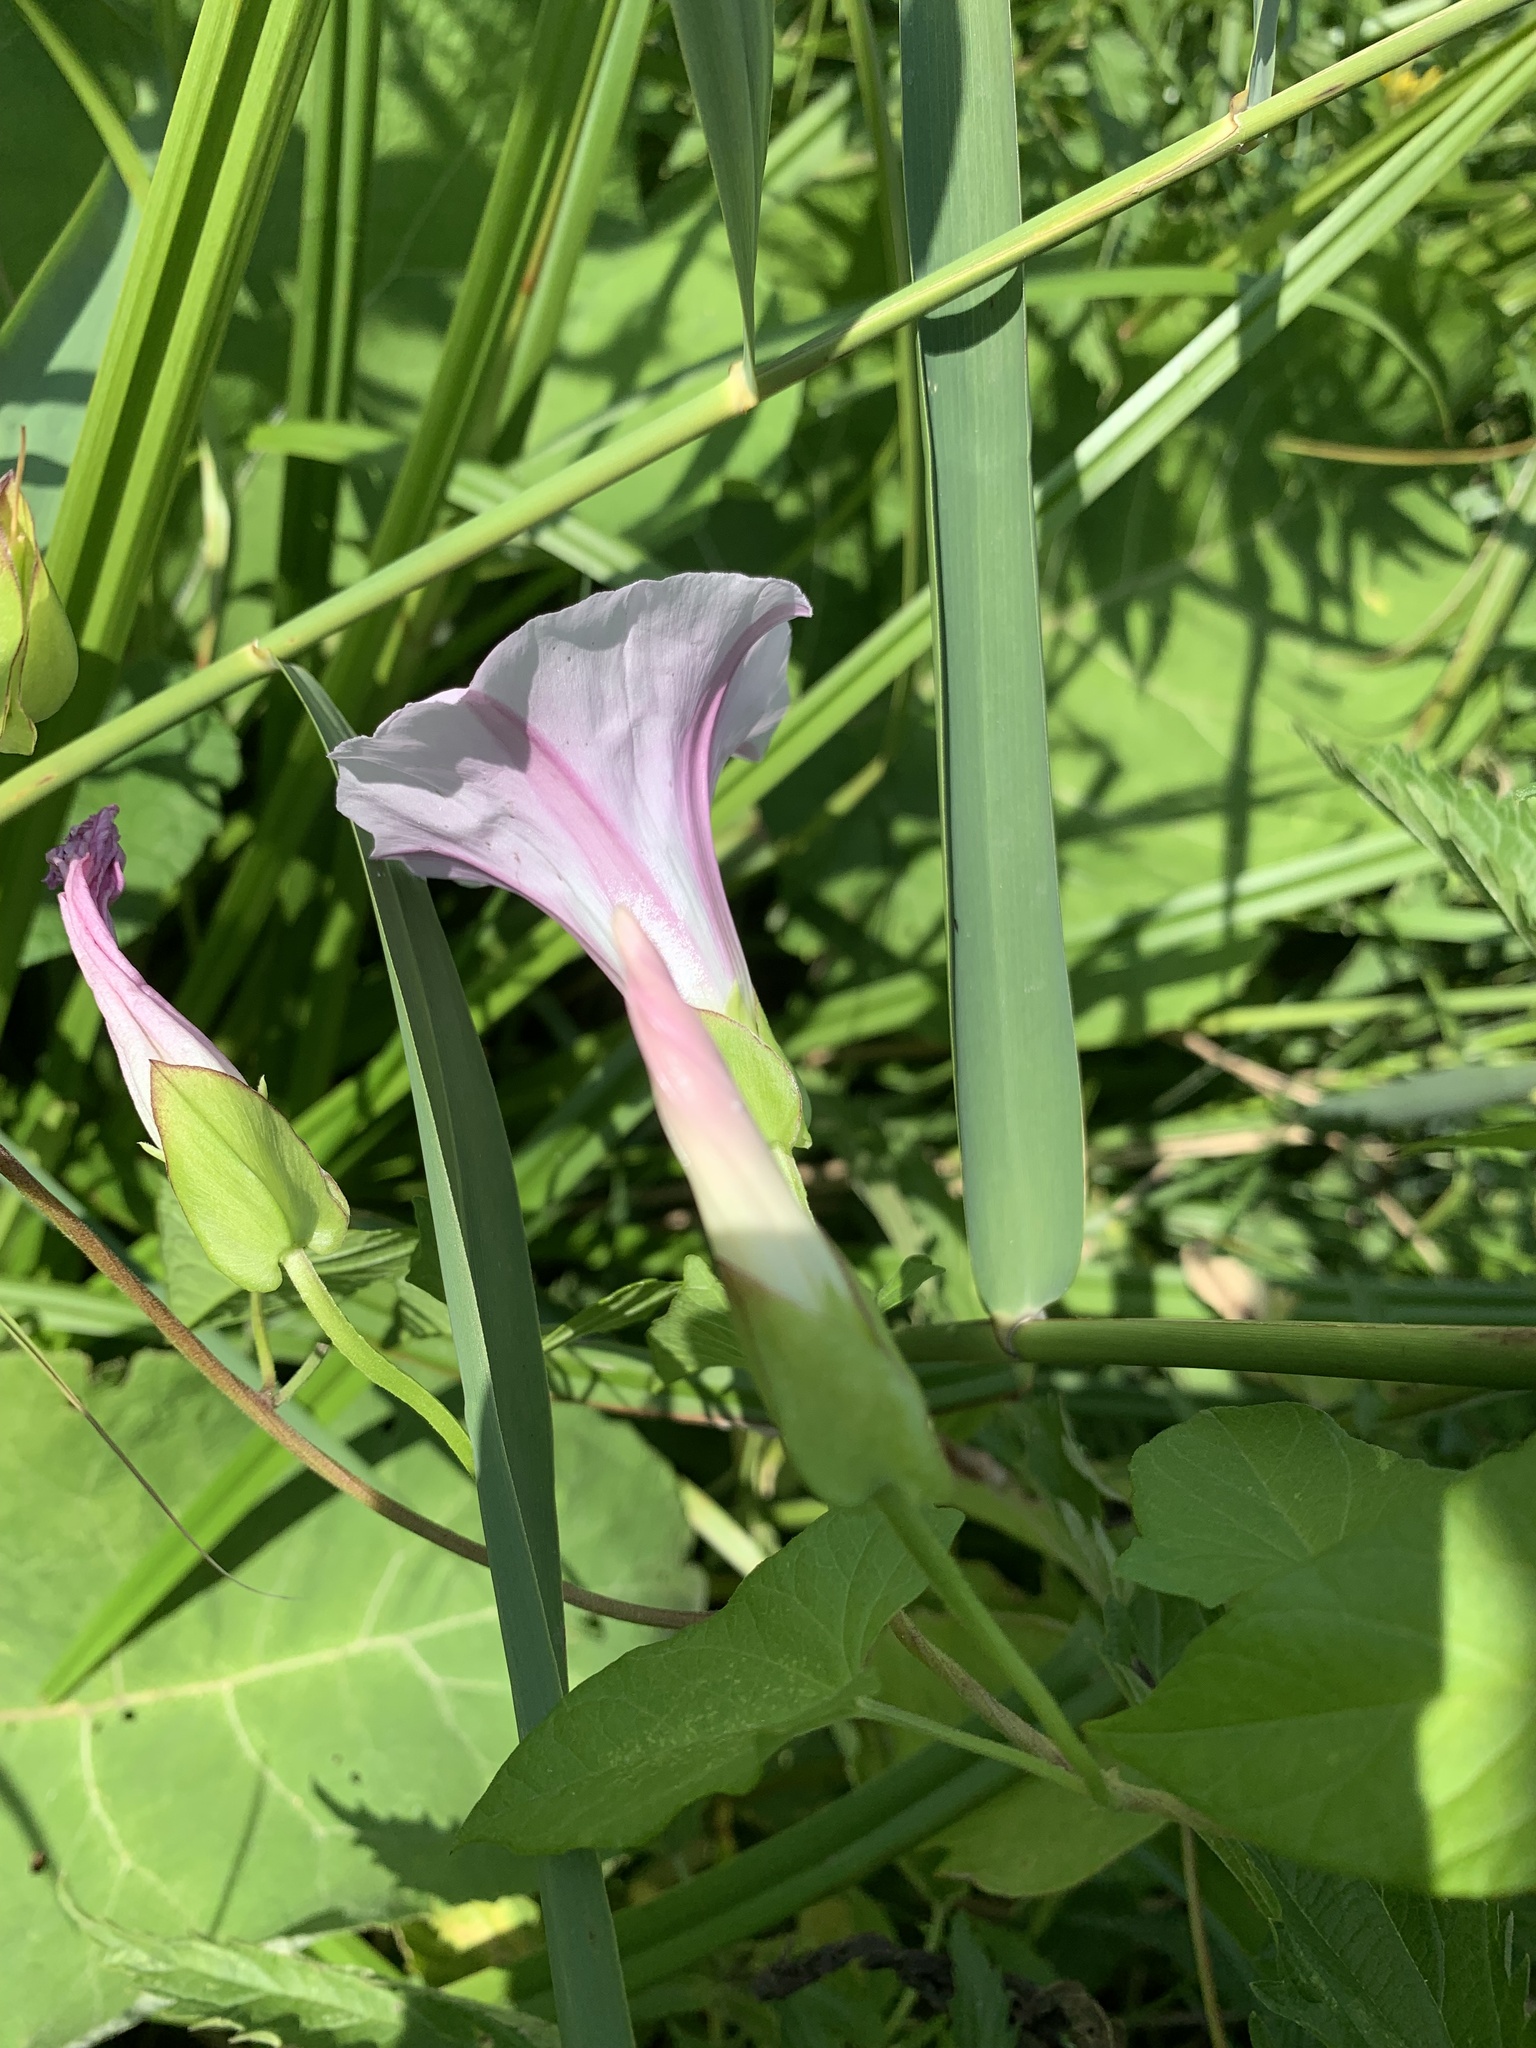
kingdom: Plantae
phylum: Tracheophyta
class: Magnoliopsida
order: Solanales
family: Convolvulaceae
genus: Calystegia
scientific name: Calystegia sepium
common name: Hedge bindweed
